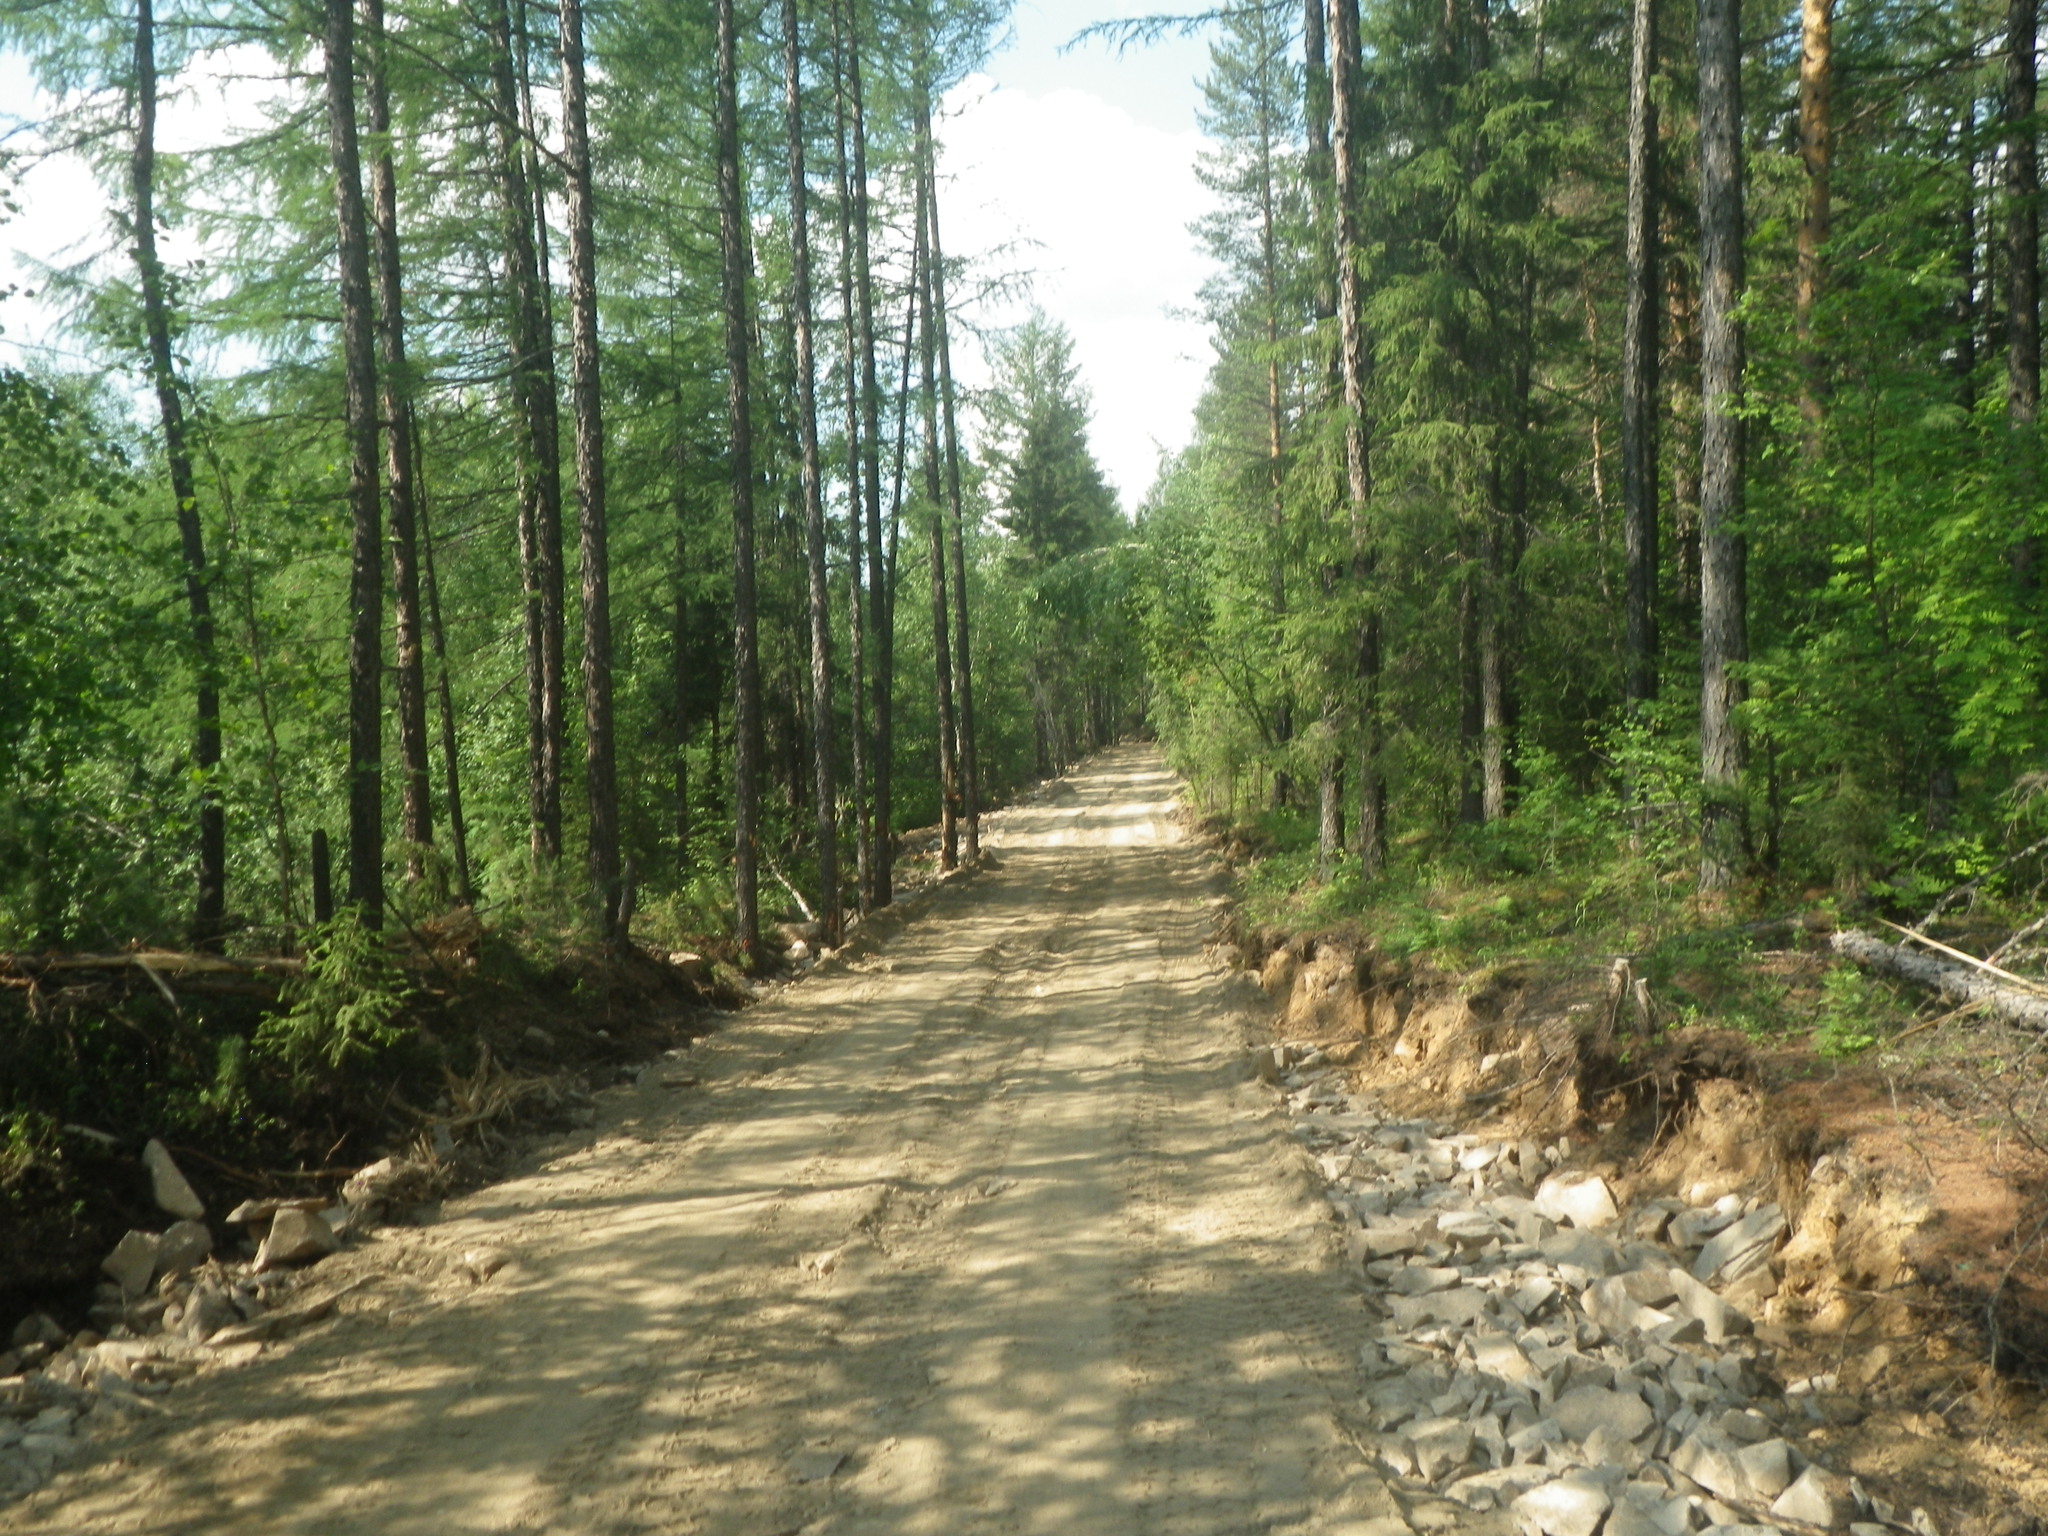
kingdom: Plantae
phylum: Tracheophyta
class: Pinopsida
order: Pinales
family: Pinaceae
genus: Picea
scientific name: Picea obovata
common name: Siberian spruce
